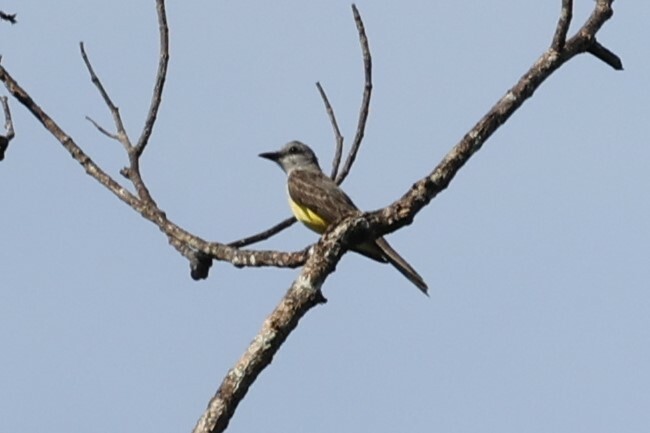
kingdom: Animalia
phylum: Chordata
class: Aves
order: Passeriformes
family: Tyrannidae
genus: Tyrannus
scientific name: Tyrannus melancholicus
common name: Tropical kingbird
